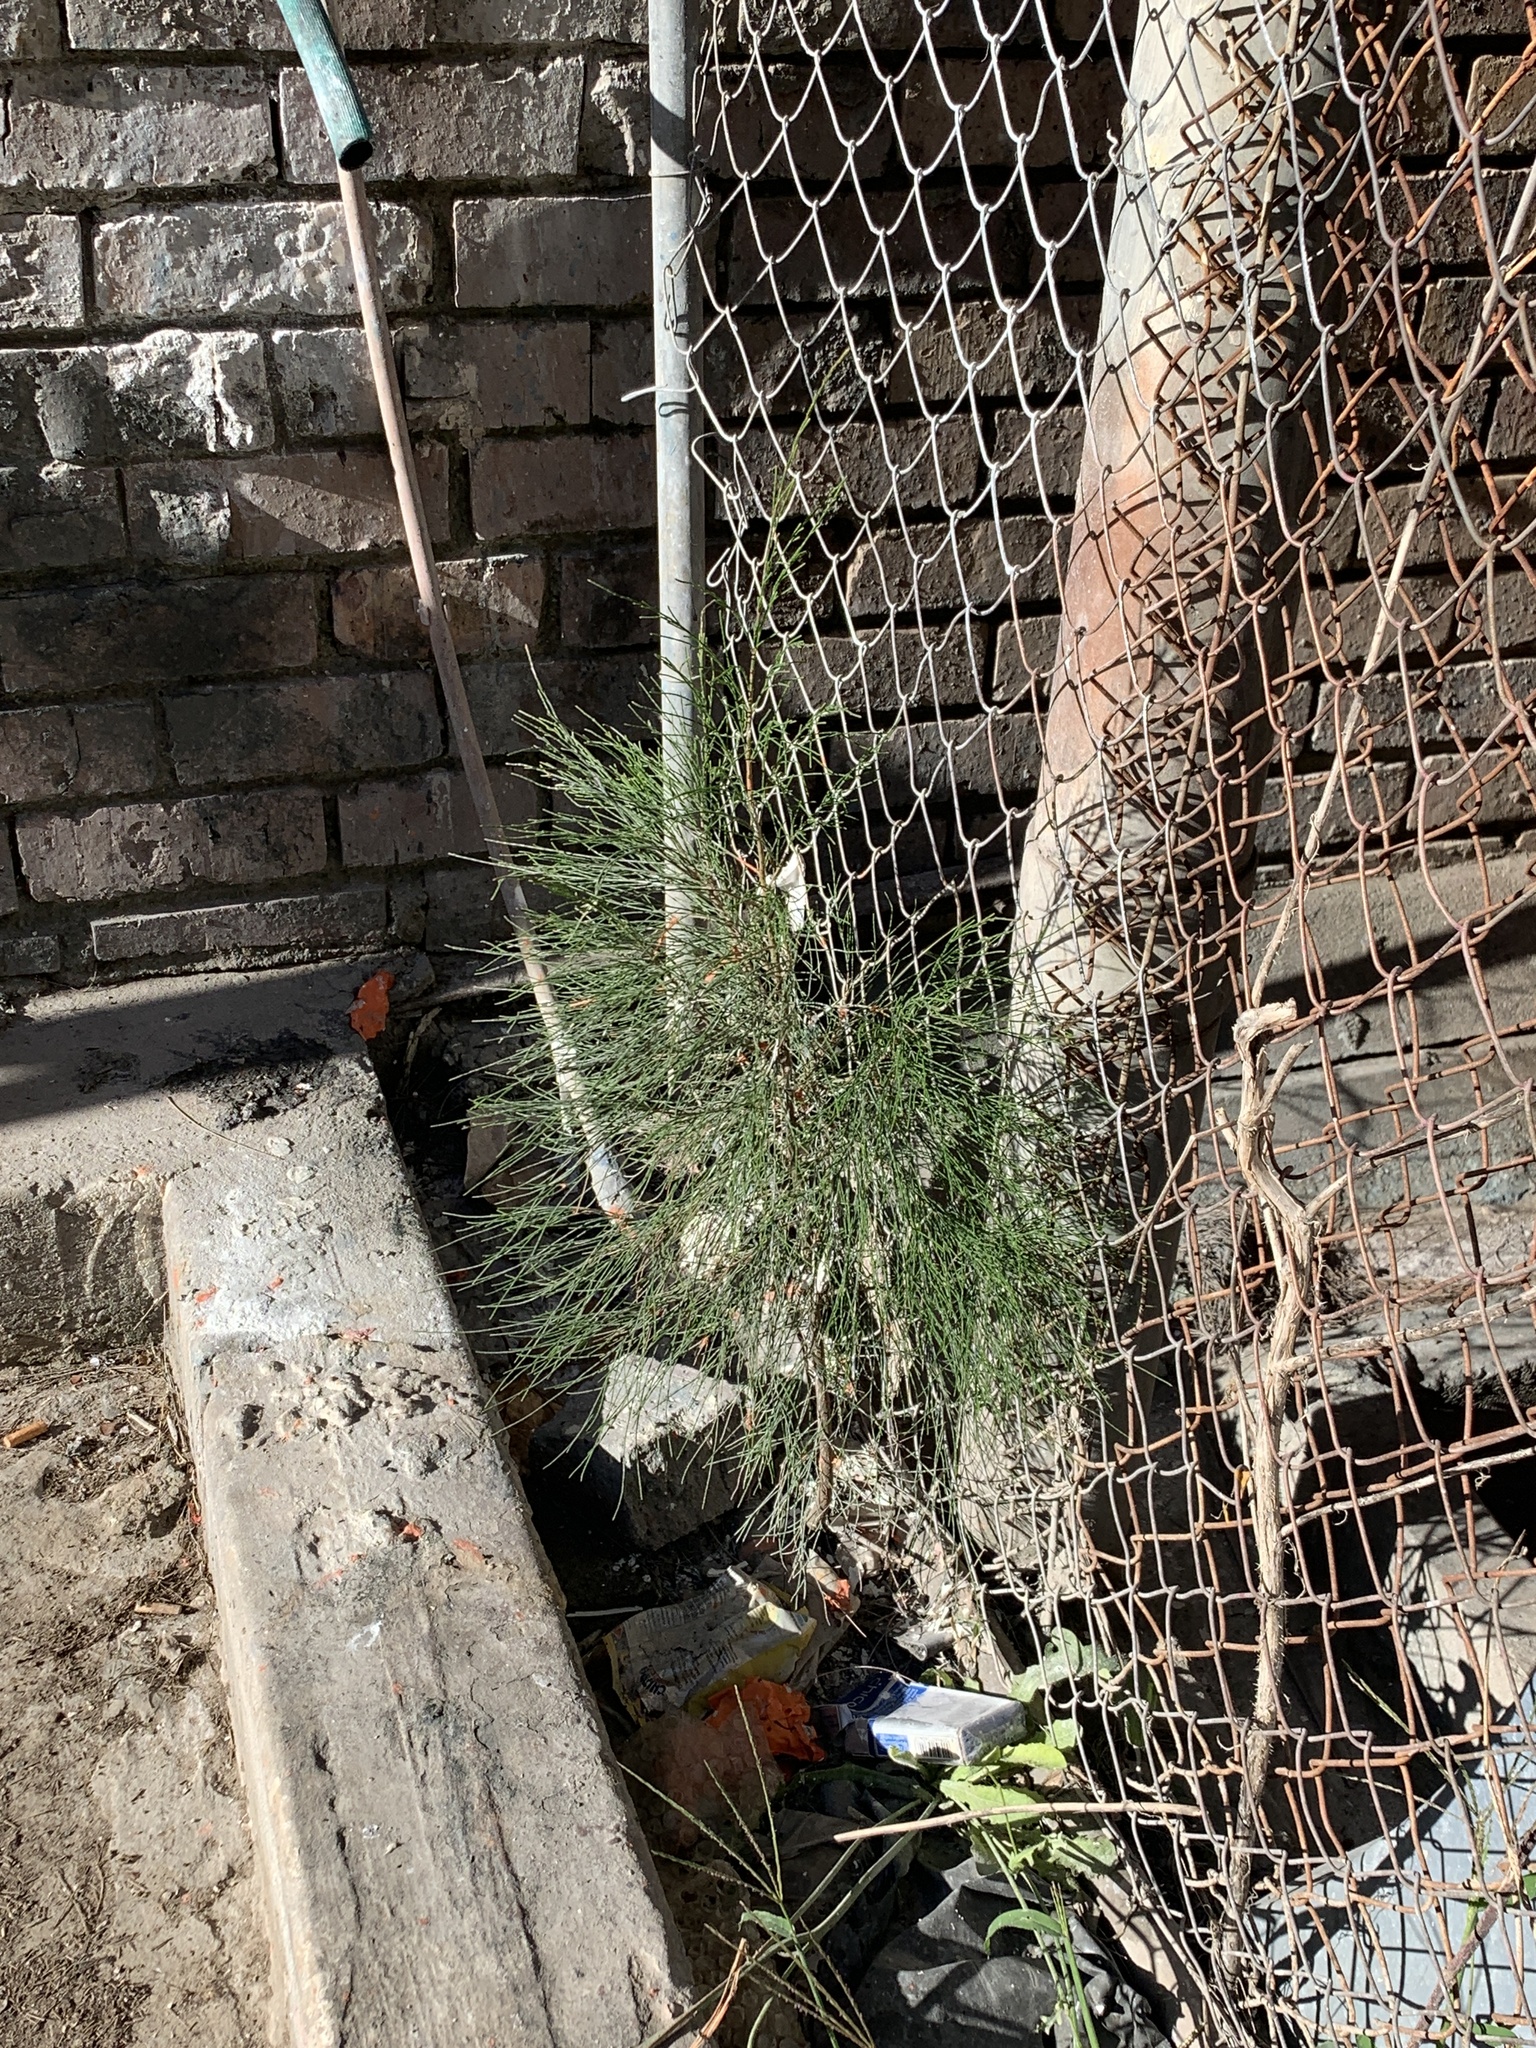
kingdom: Plantae
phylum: Tracheophyta
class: Magnoliopsida
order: Fagales
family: Casuarinaceae
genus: Casuarina
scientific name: Casuarina cunninghamiana
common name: River sheoak
